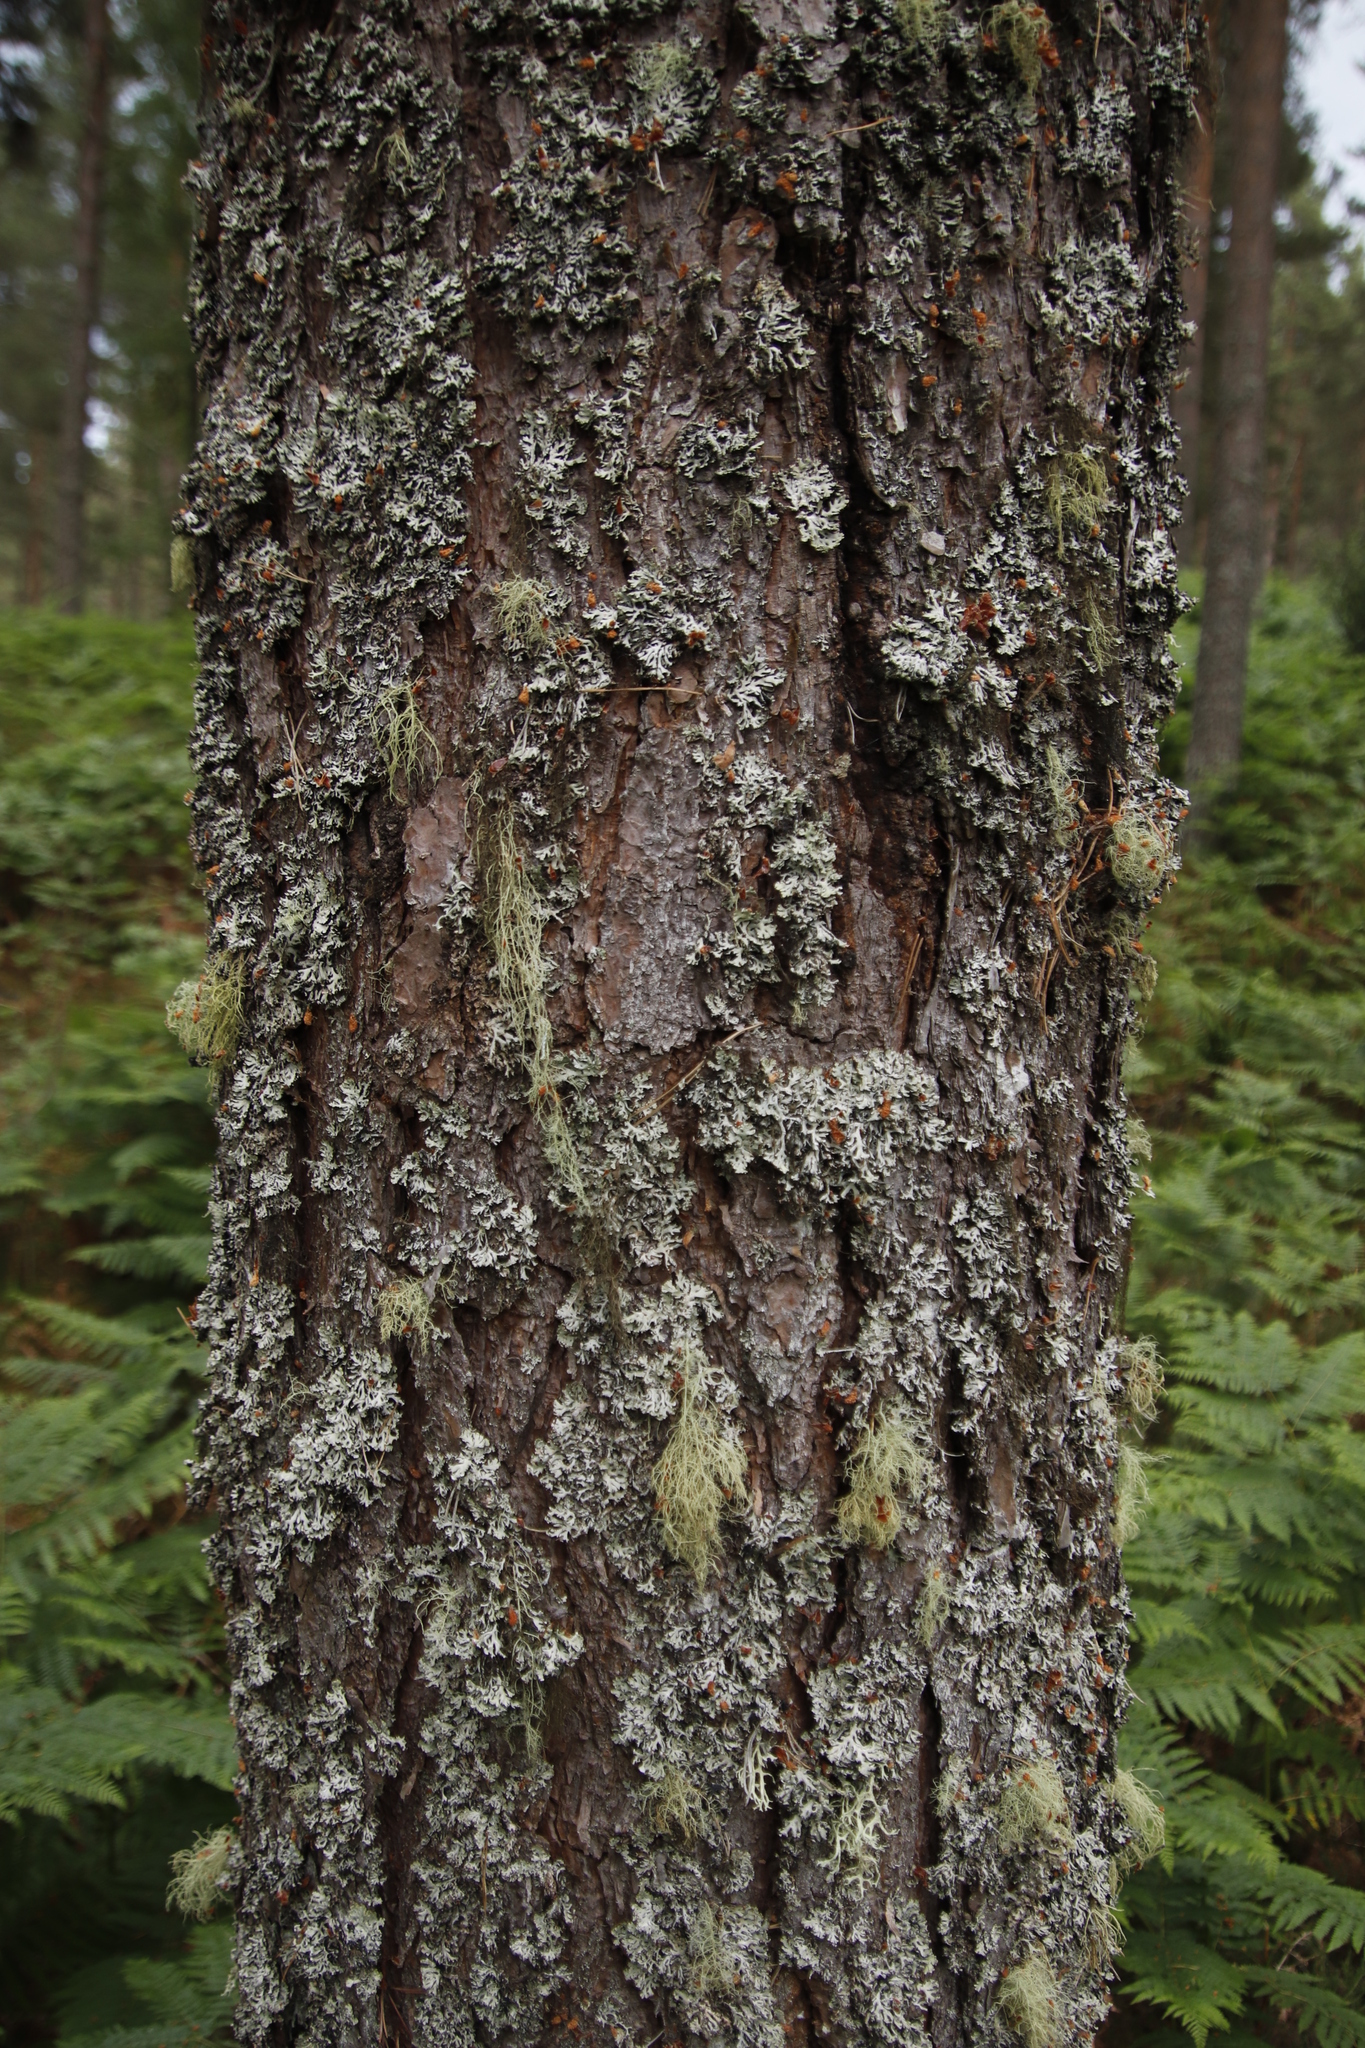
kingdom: Fungi
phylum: Ascomycota
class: Lecanoromycetes
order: Lecanorales
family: Parmeliaceae
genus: Hypogymnia
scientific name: Hypogymnia physodes
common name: Dark crottle
